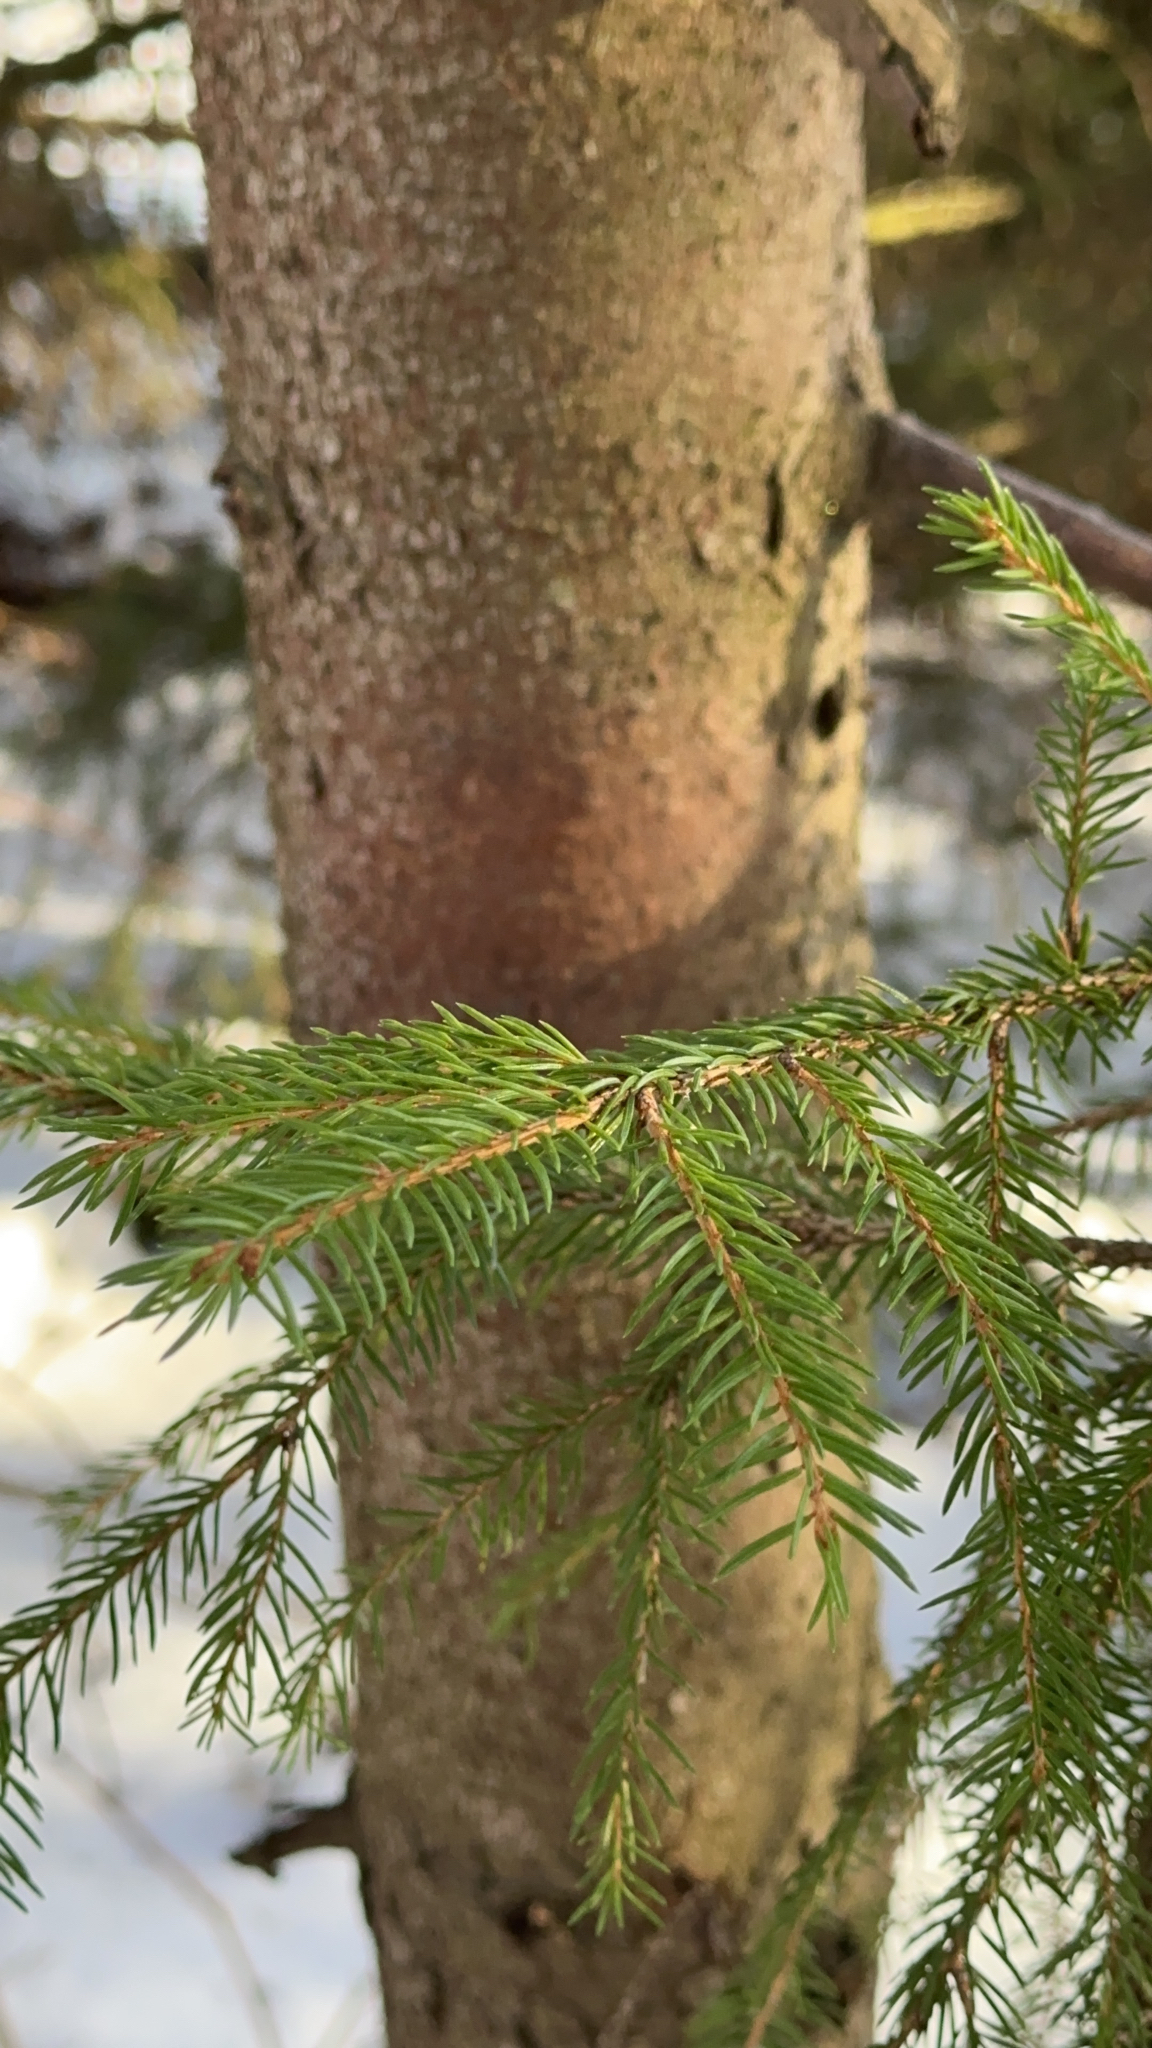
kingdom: Plantae
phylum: Tracheophyta
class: Pinopsida
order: Pinales
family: Pinaceae
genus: Picea
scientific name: Picea abies
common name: Norway spruce
